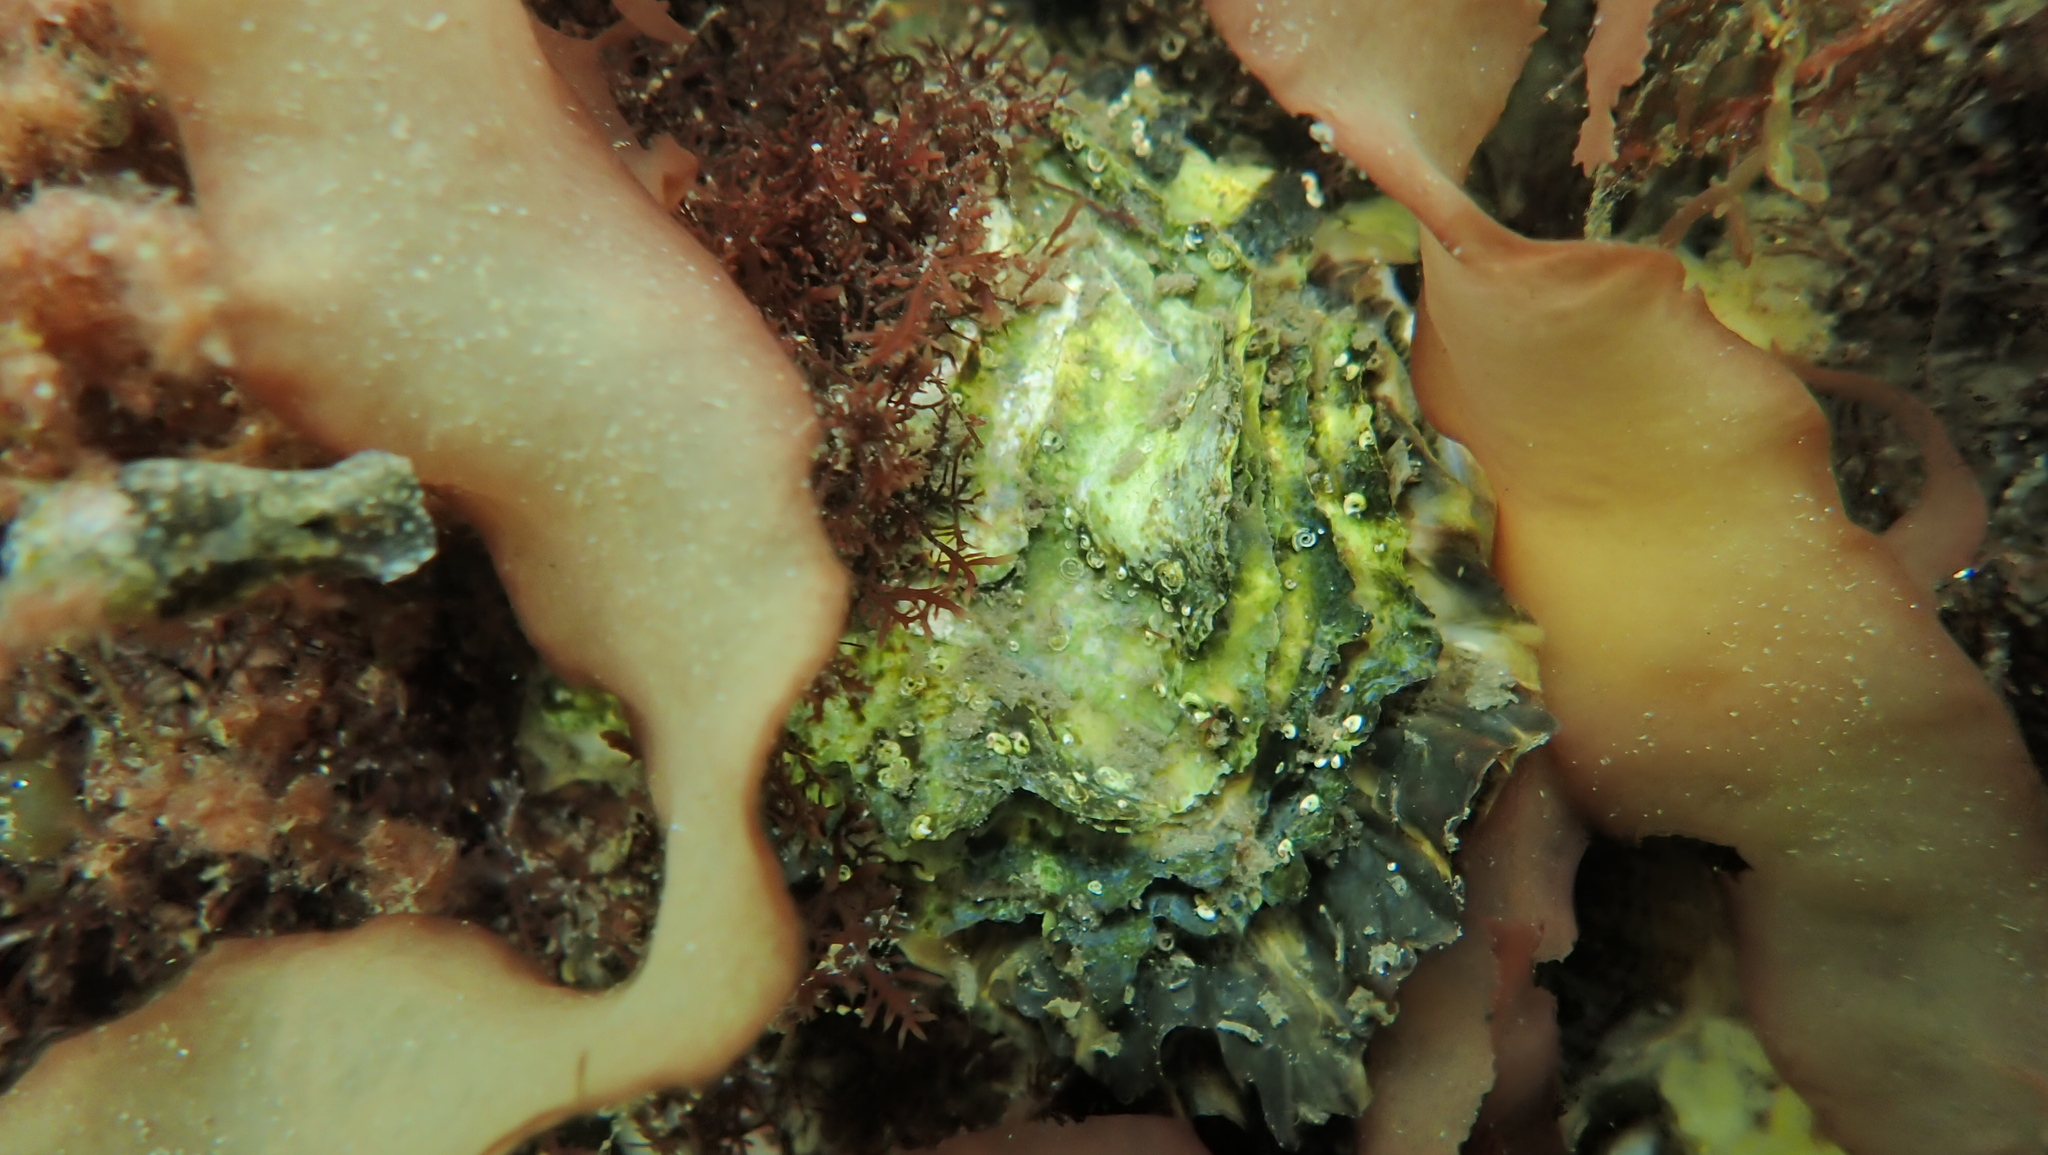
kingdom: Animalia
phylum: Mollusca
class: Bivalvia
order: Ostreida
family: Ostreidae
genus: Magallana
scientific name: Magallana gigas
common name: Pacific oyster
